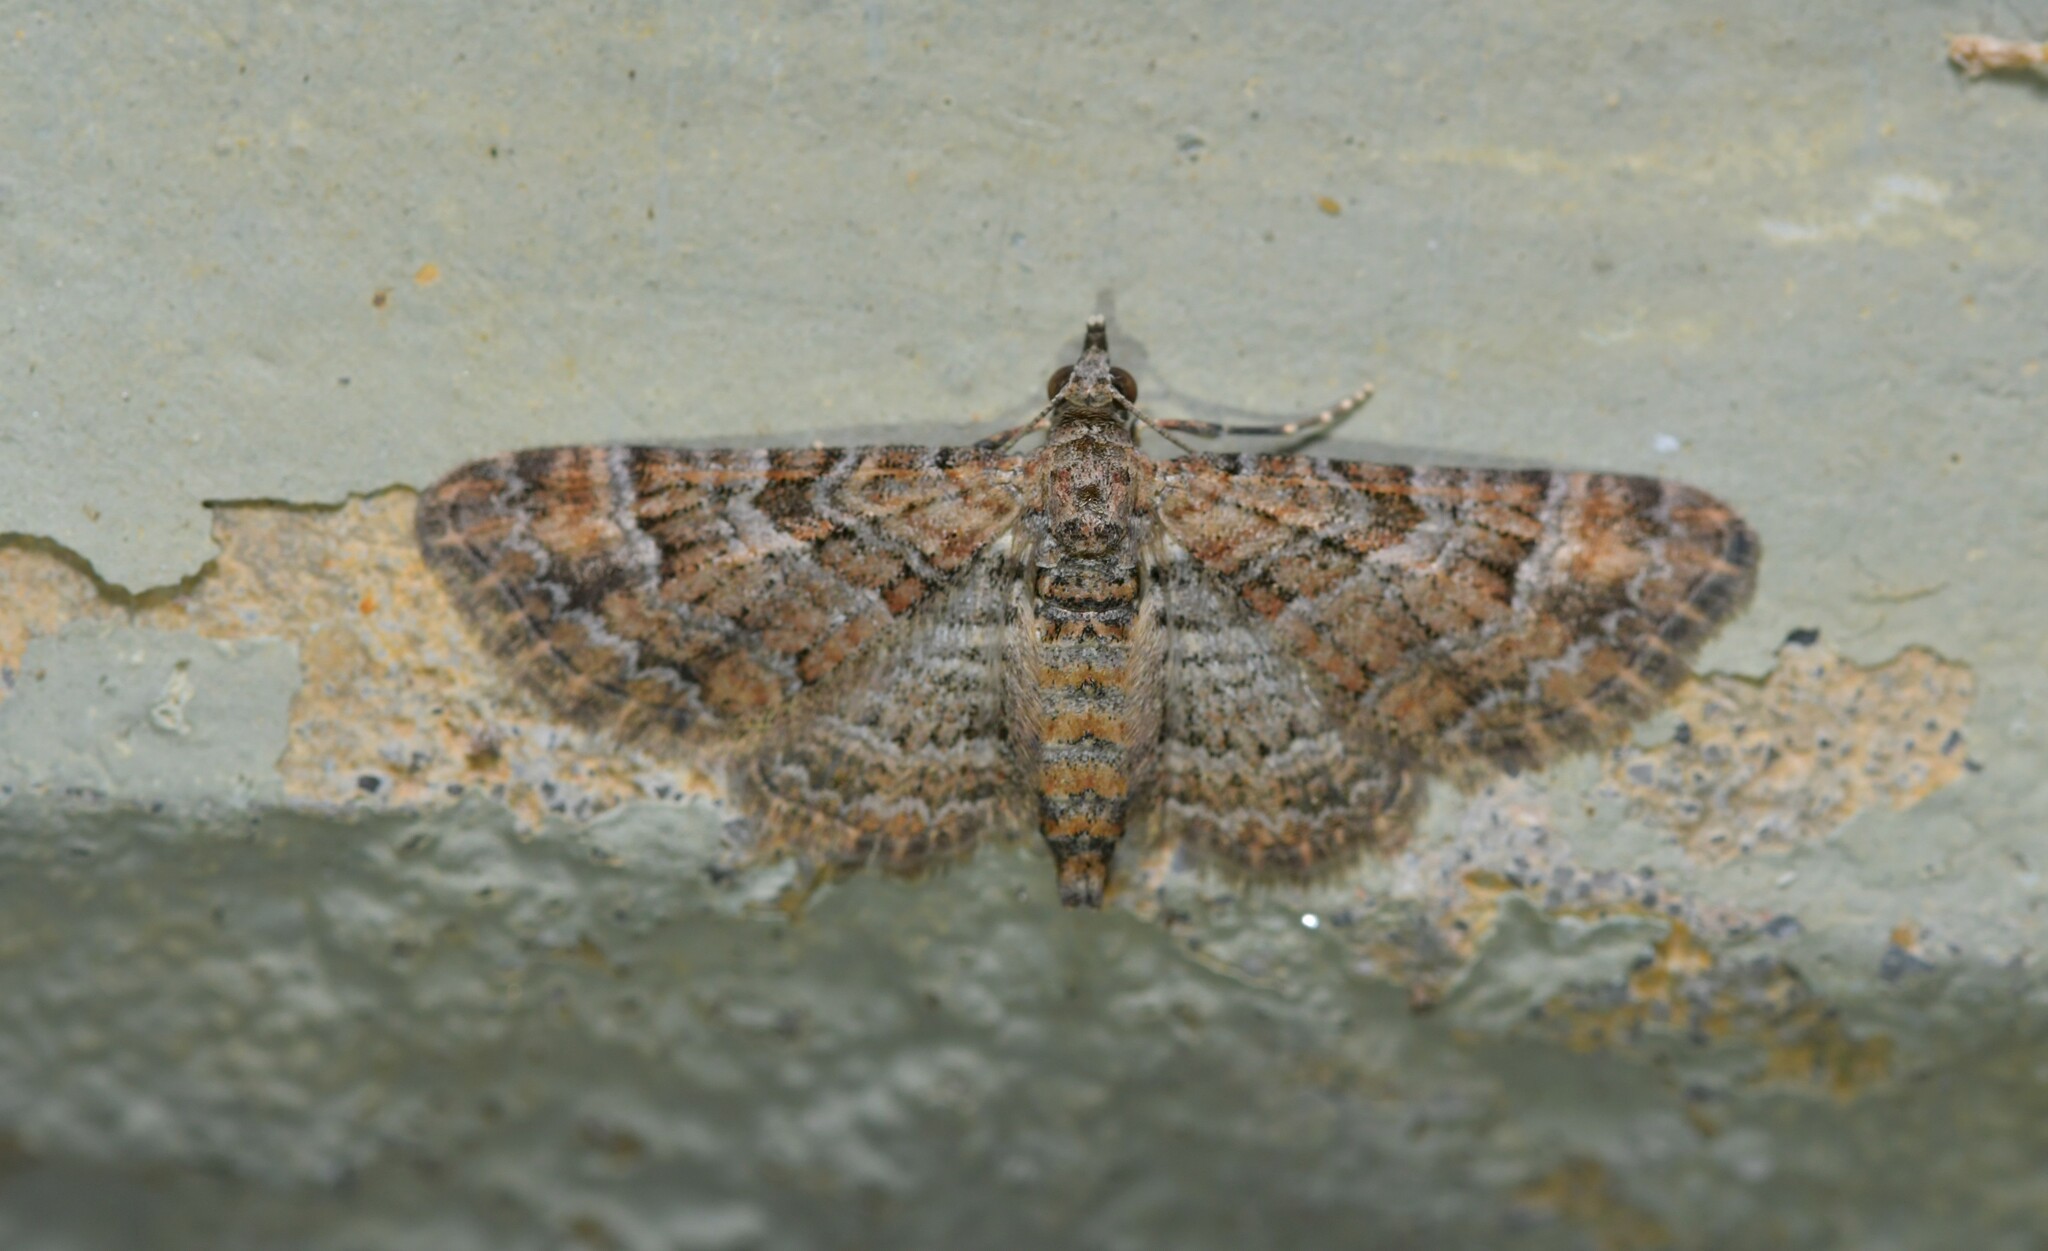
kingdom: Animalia
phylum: Arthropoda
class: Insecta
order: Lepidoptera
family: Geometridae
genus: Gymnoscelis
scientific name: Gymnoscelis rufifasciata
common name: Double-striped pug
